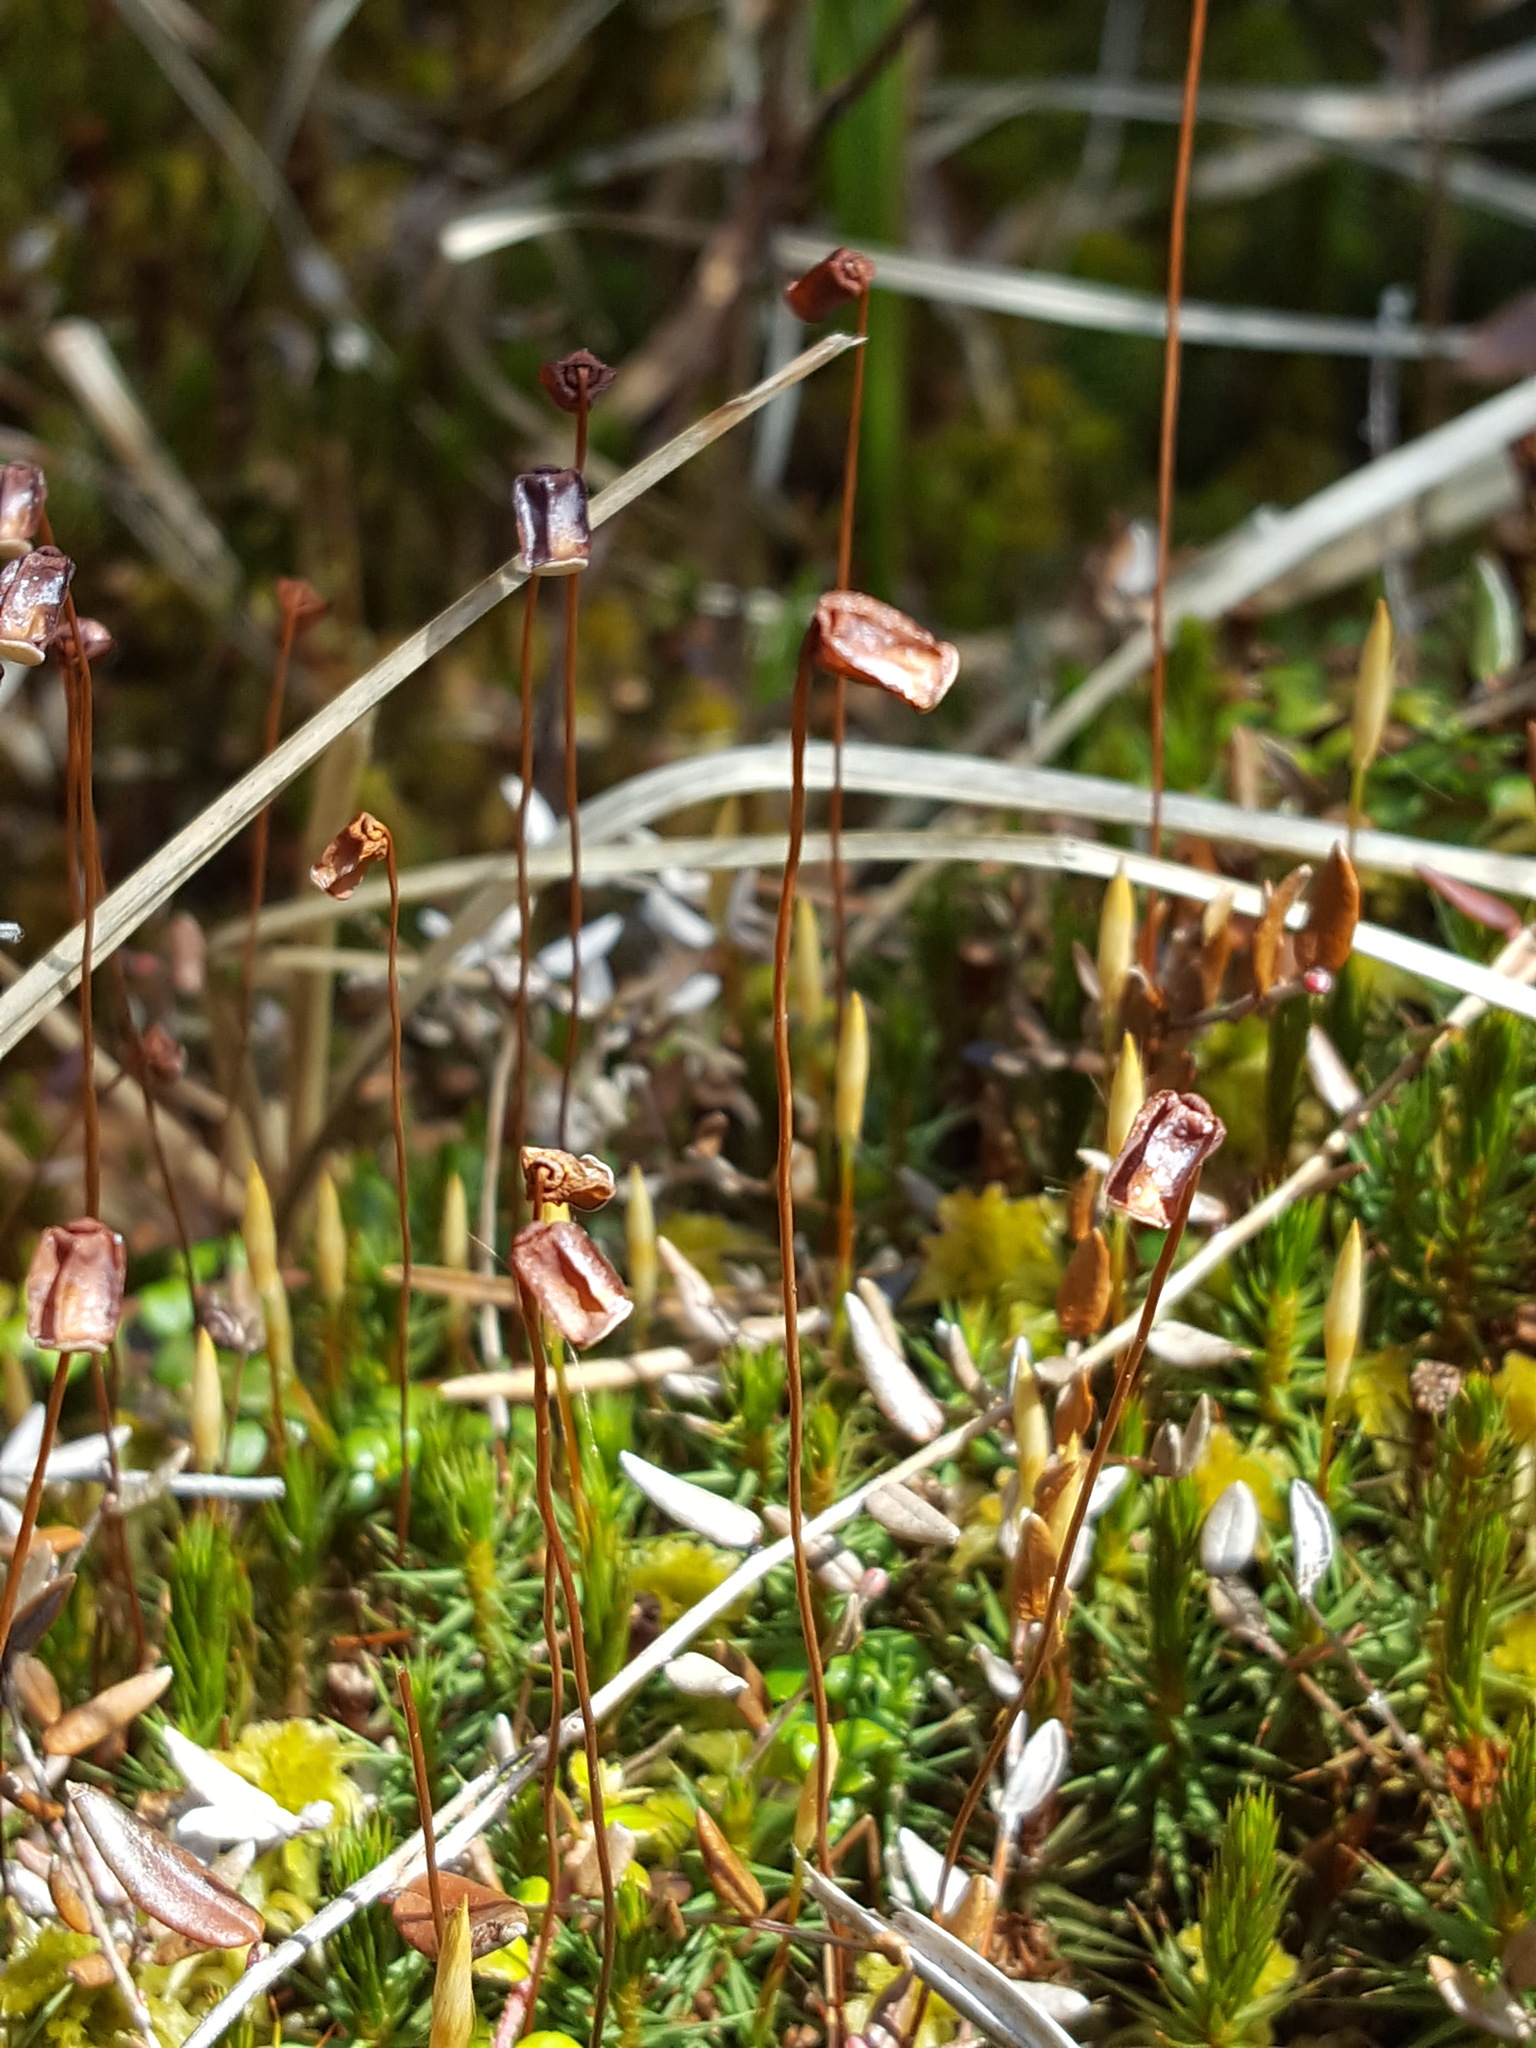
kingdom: Plantae
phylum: Bryophyta
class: Polytrichopsida
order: Polytrichales
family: Polytrichaceae
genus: Polytrichum
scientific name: Polytrichum juniperinum
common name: Juniper haircap moss
